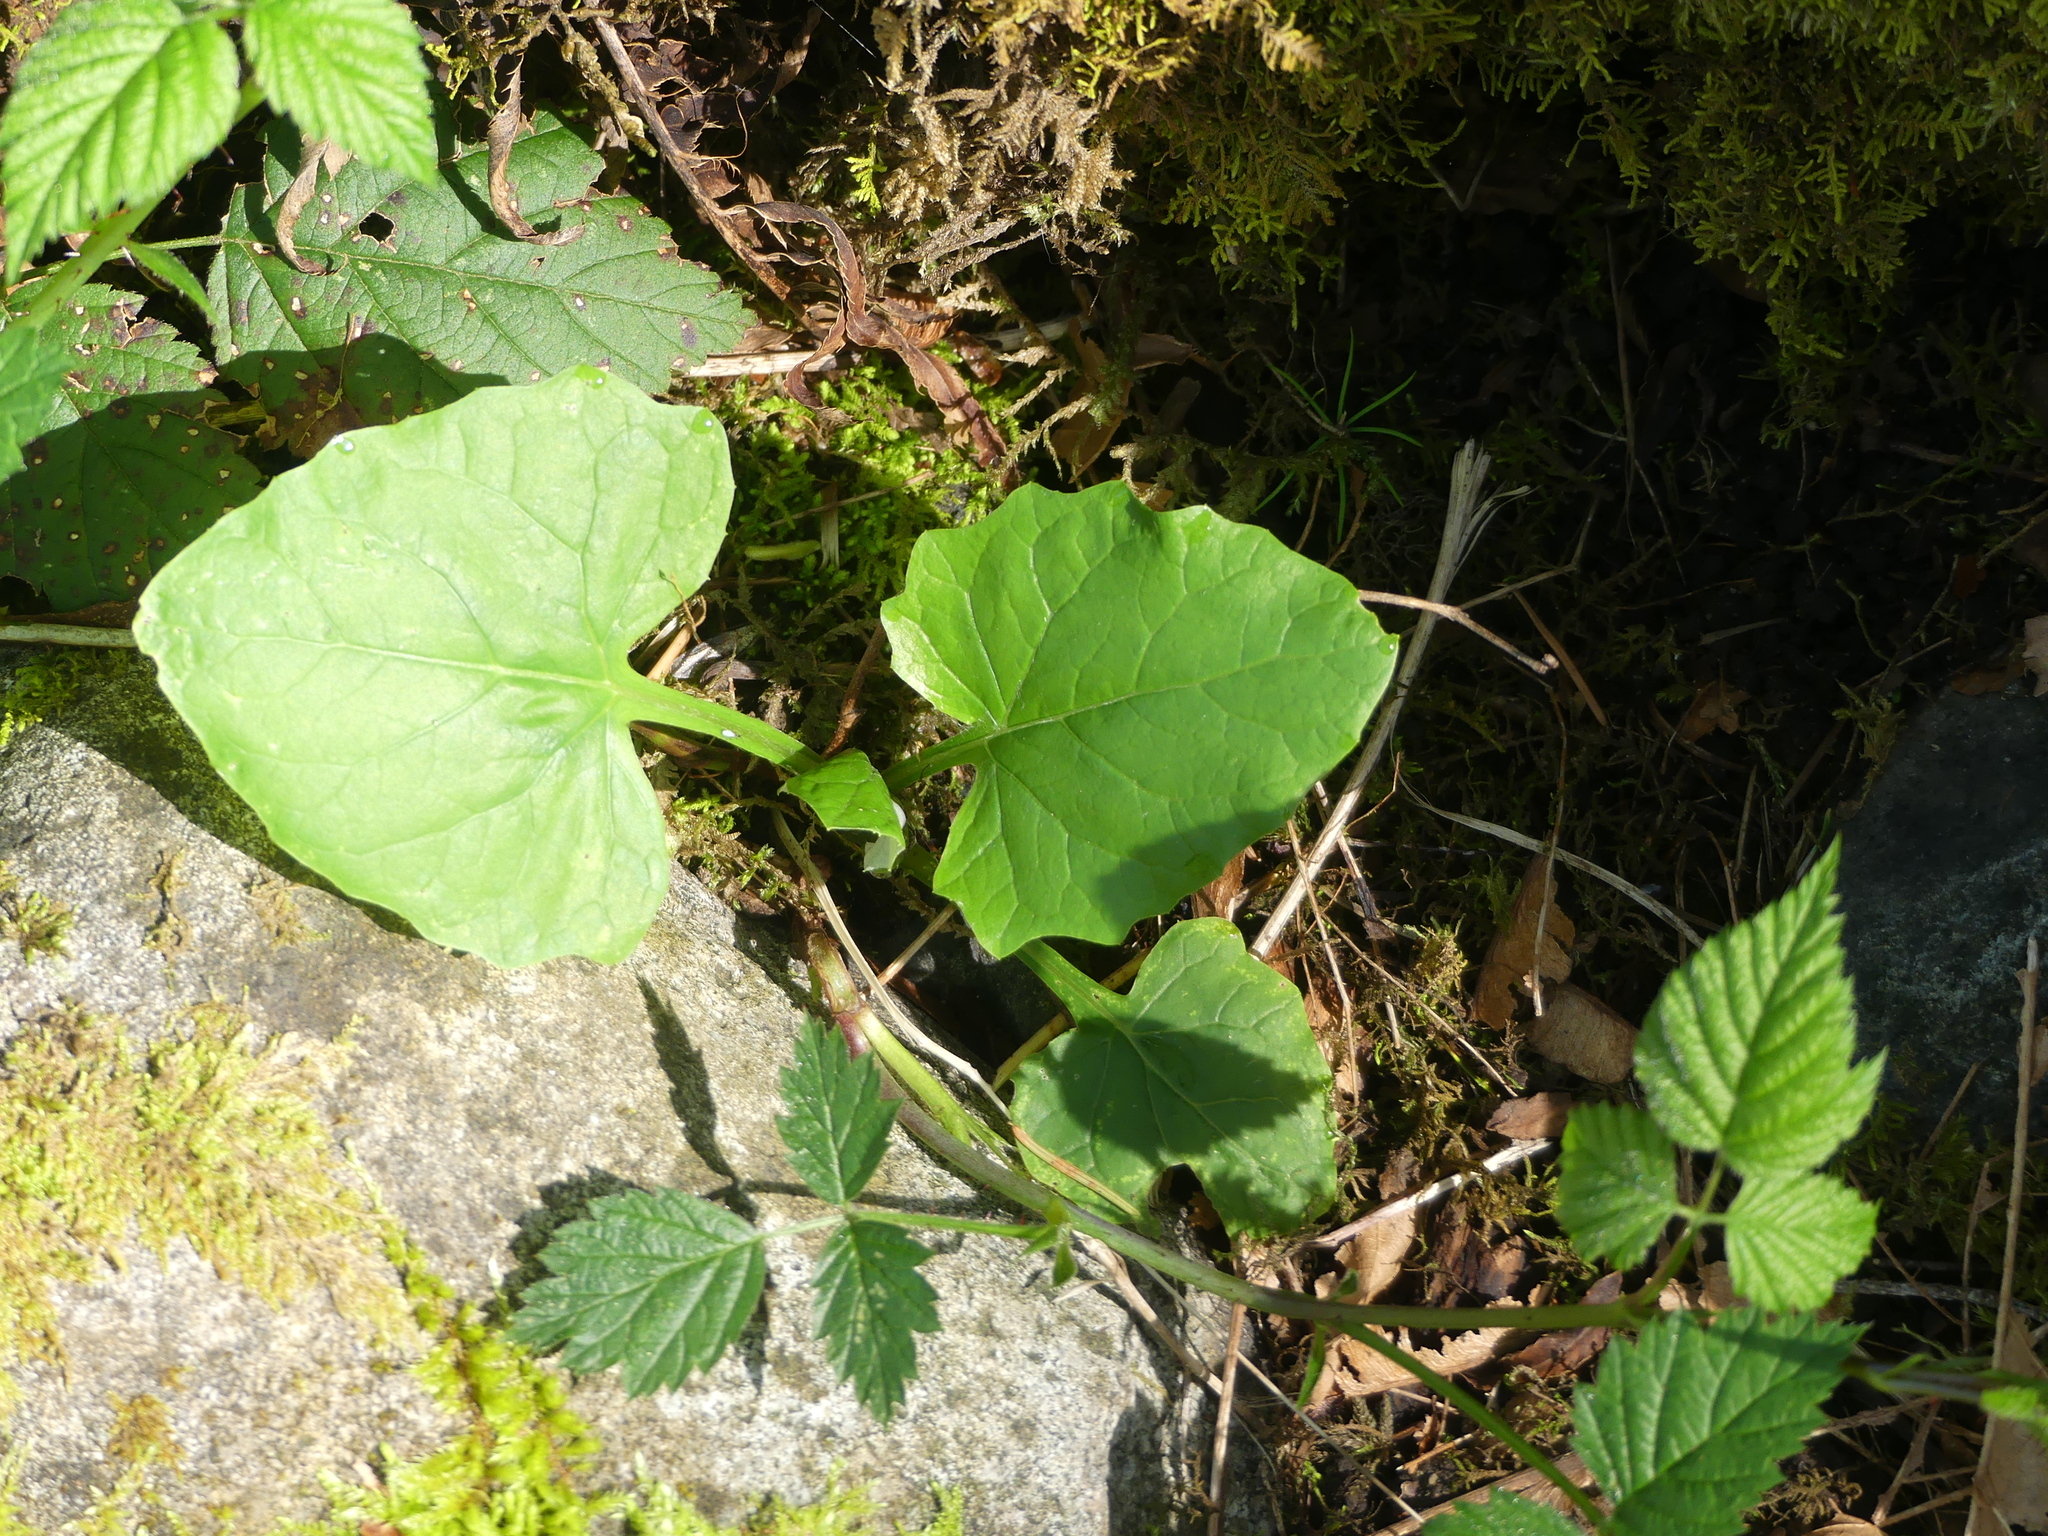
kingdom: Plantae
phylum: Tracheophyta
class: Magnoliopsida
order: Asterales
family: Asteraceae
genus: Adenocaulon
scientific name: Adenocaulon bicolor
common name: Trailplant
